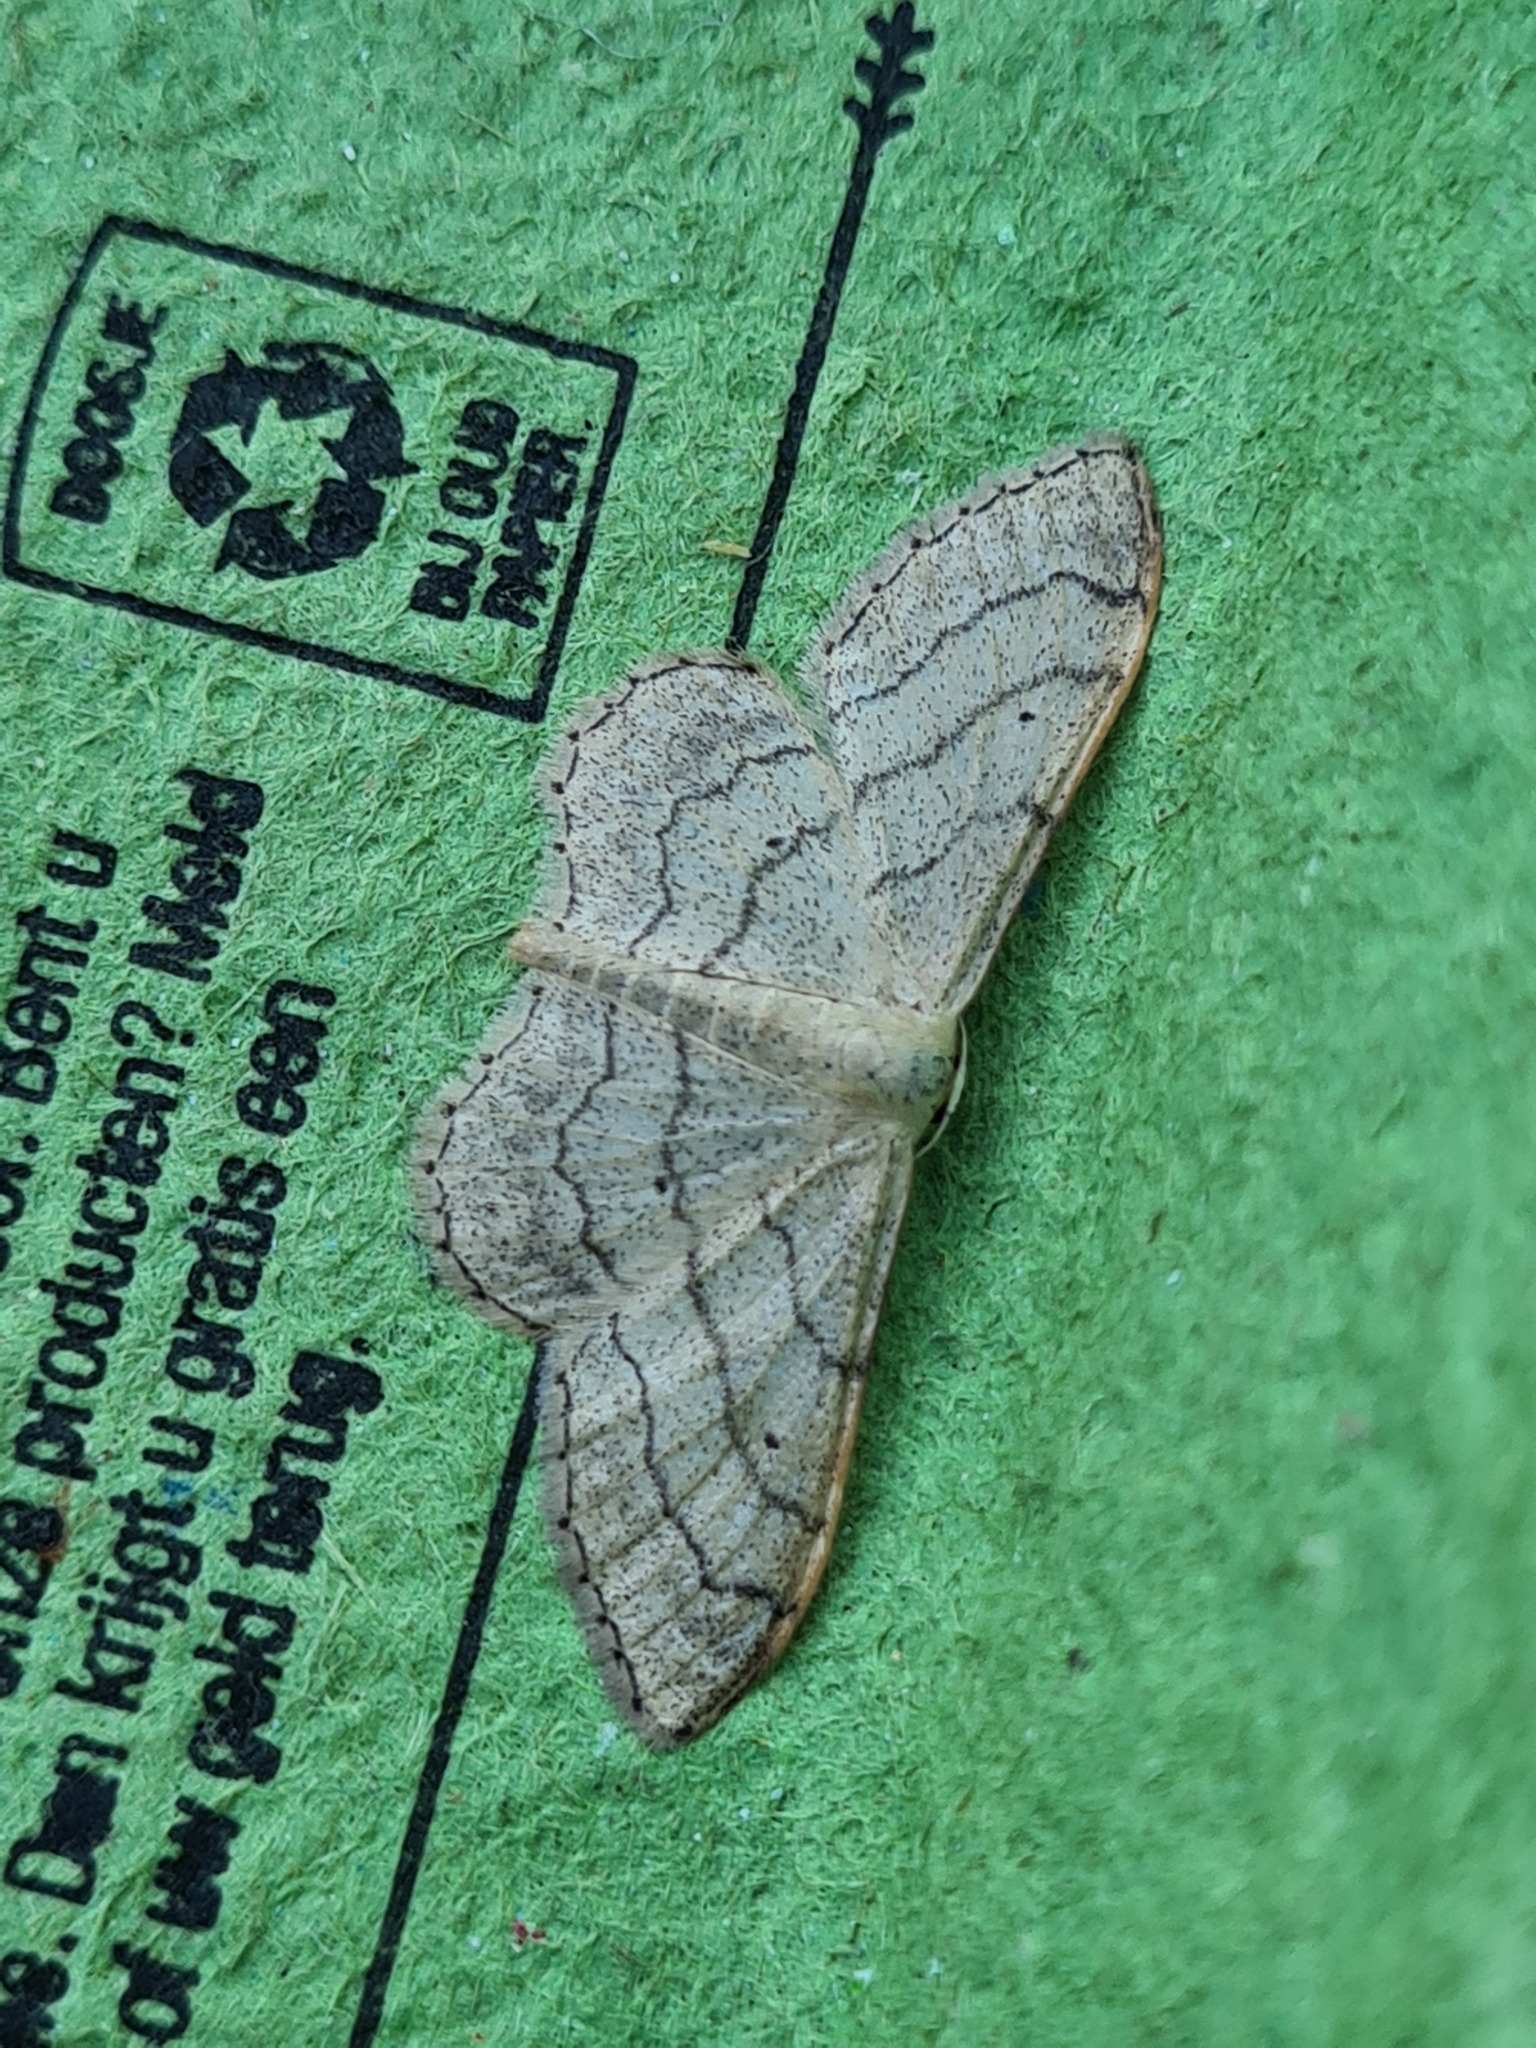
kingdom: Animalia
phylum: Arthropoda
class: Insecta
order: Lepidoptera
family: Geometridae
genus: Idaea
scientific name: Idaea aversata
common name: Riband wave
